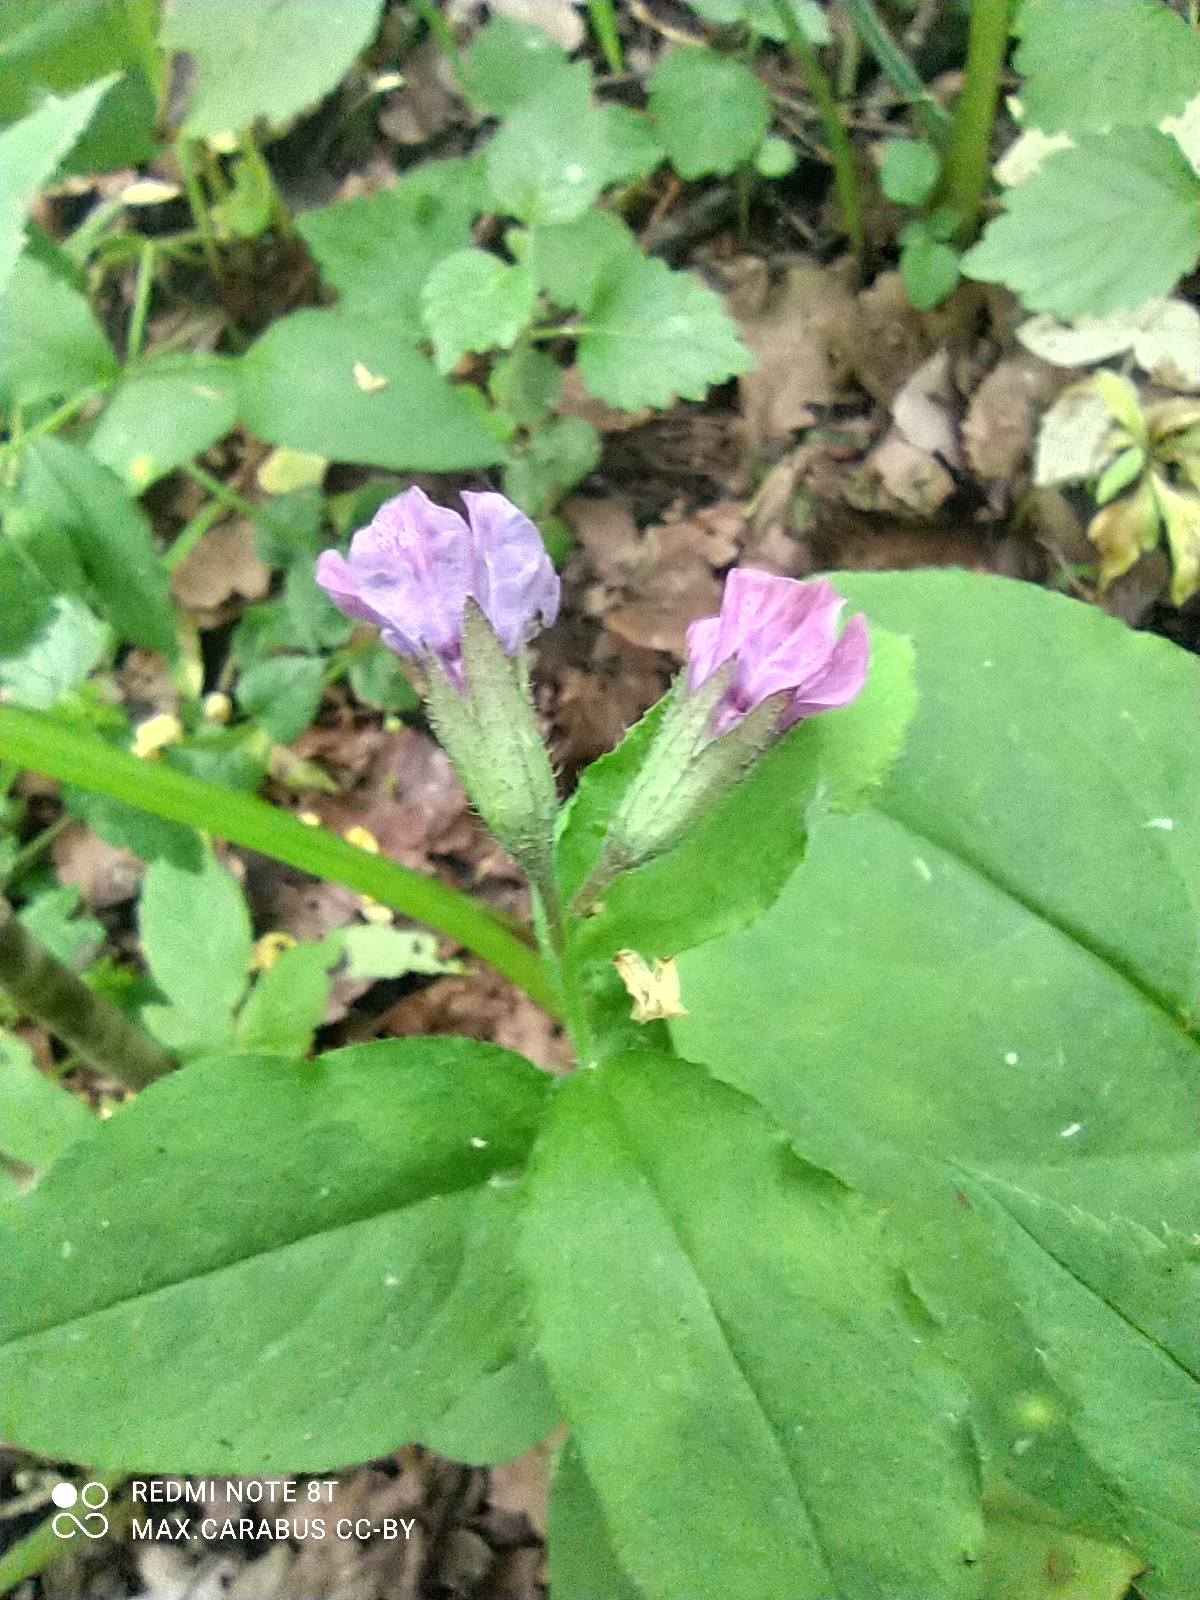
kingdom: Plantae
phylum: Tracheophyta
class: Magnoliopsida
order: Boraginales
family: Boraginaceae
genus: Pulmonaria
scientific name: Pulmonaria obscura
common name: Suffolk lungwort
